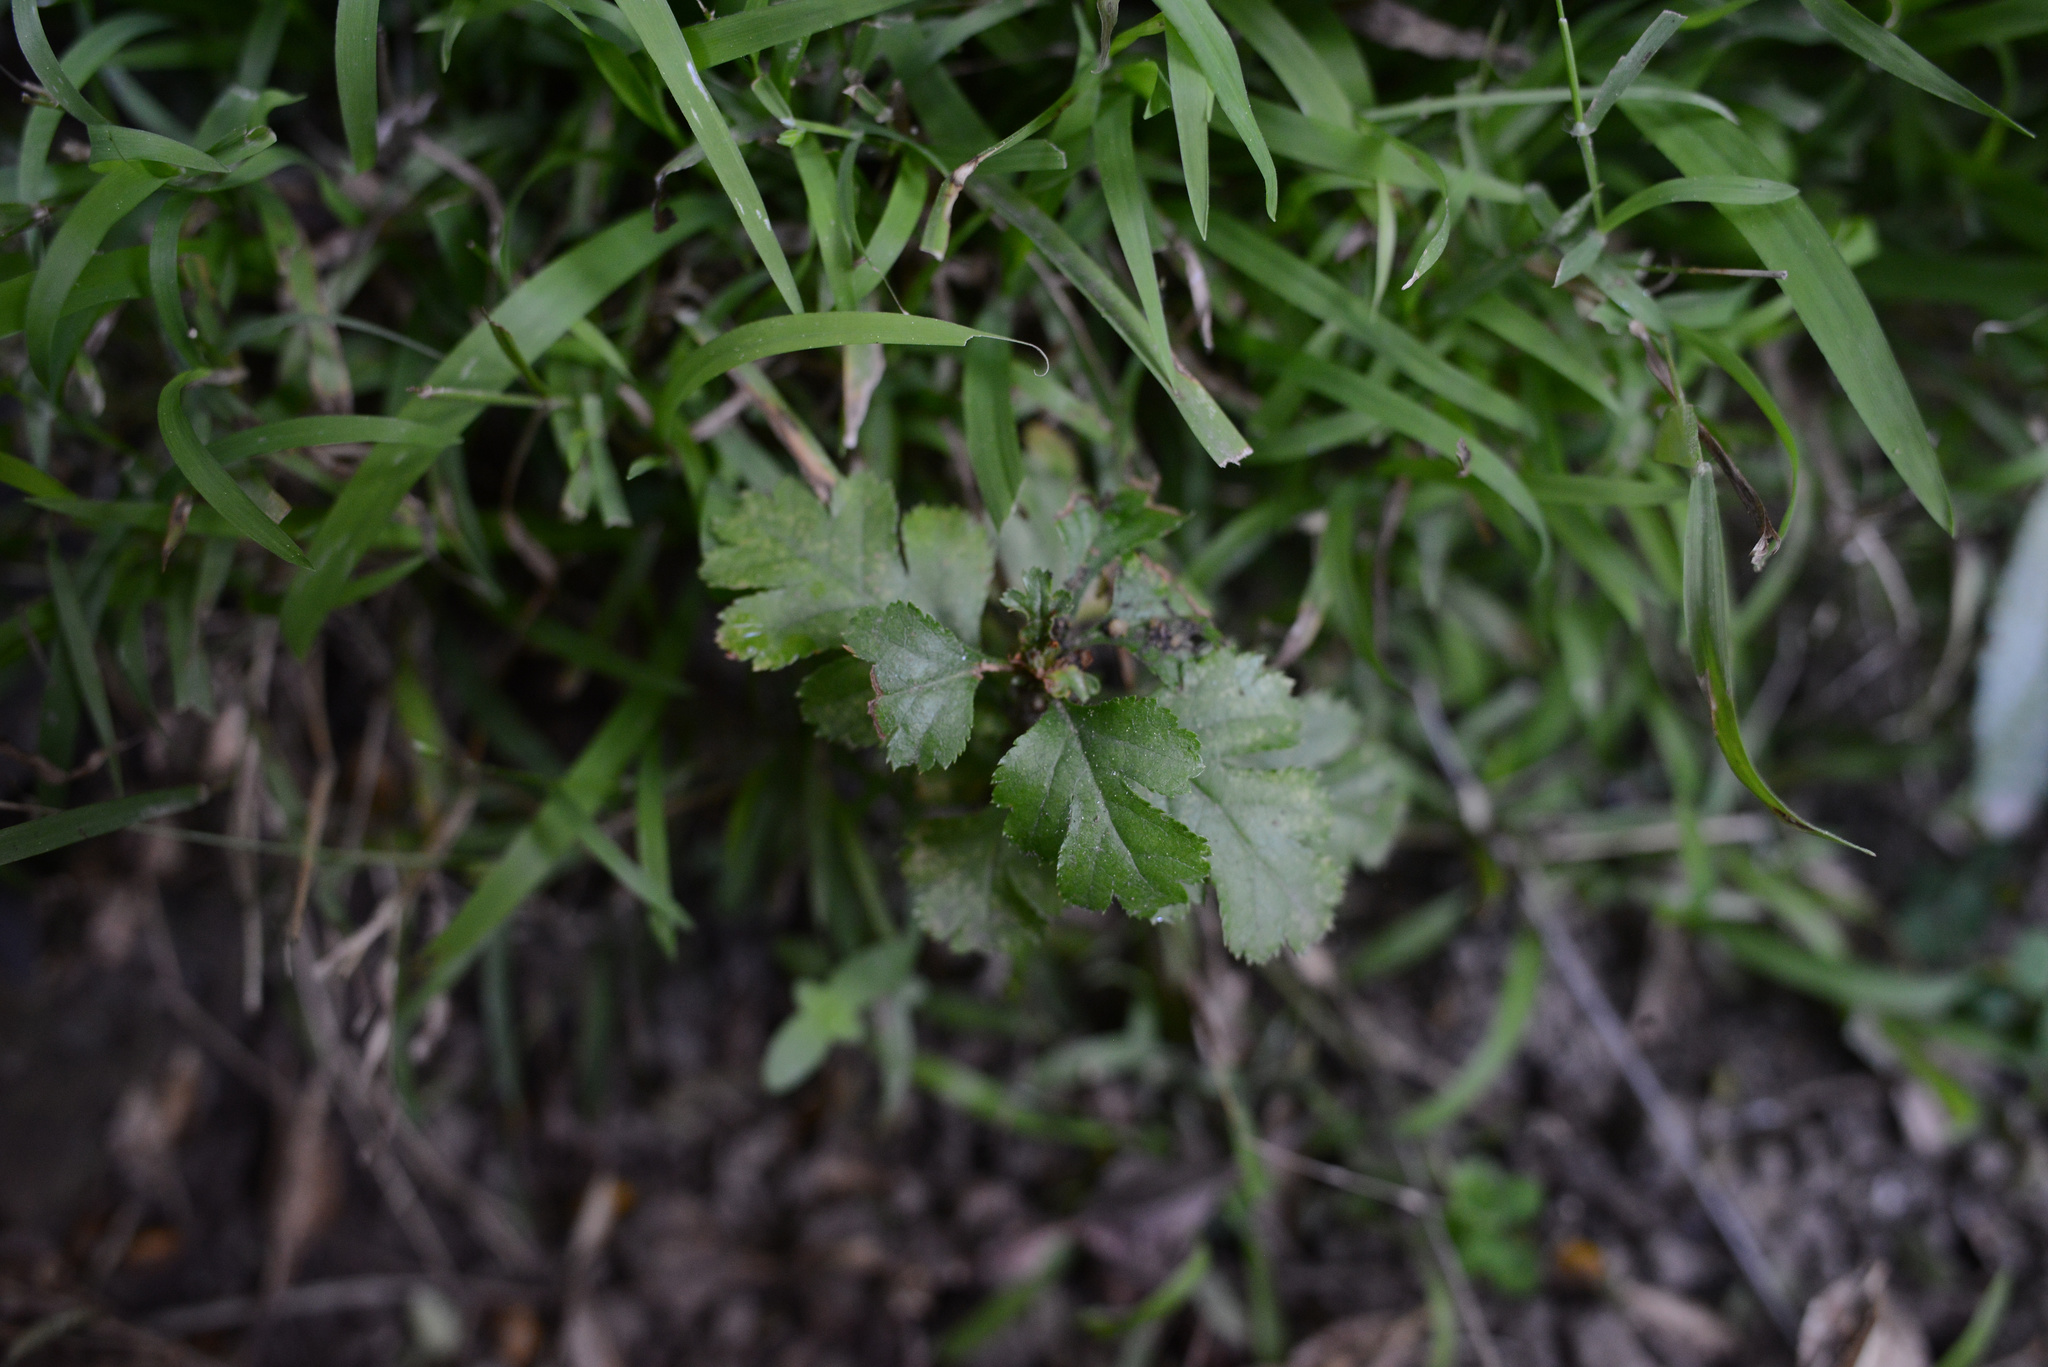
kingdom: Plantae
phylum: Tracheophyta
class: Magnoliopsida
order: Rosales
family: Rosaceae
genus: Crataegus
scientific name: Crataegus monogyna
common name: Hawthorn
